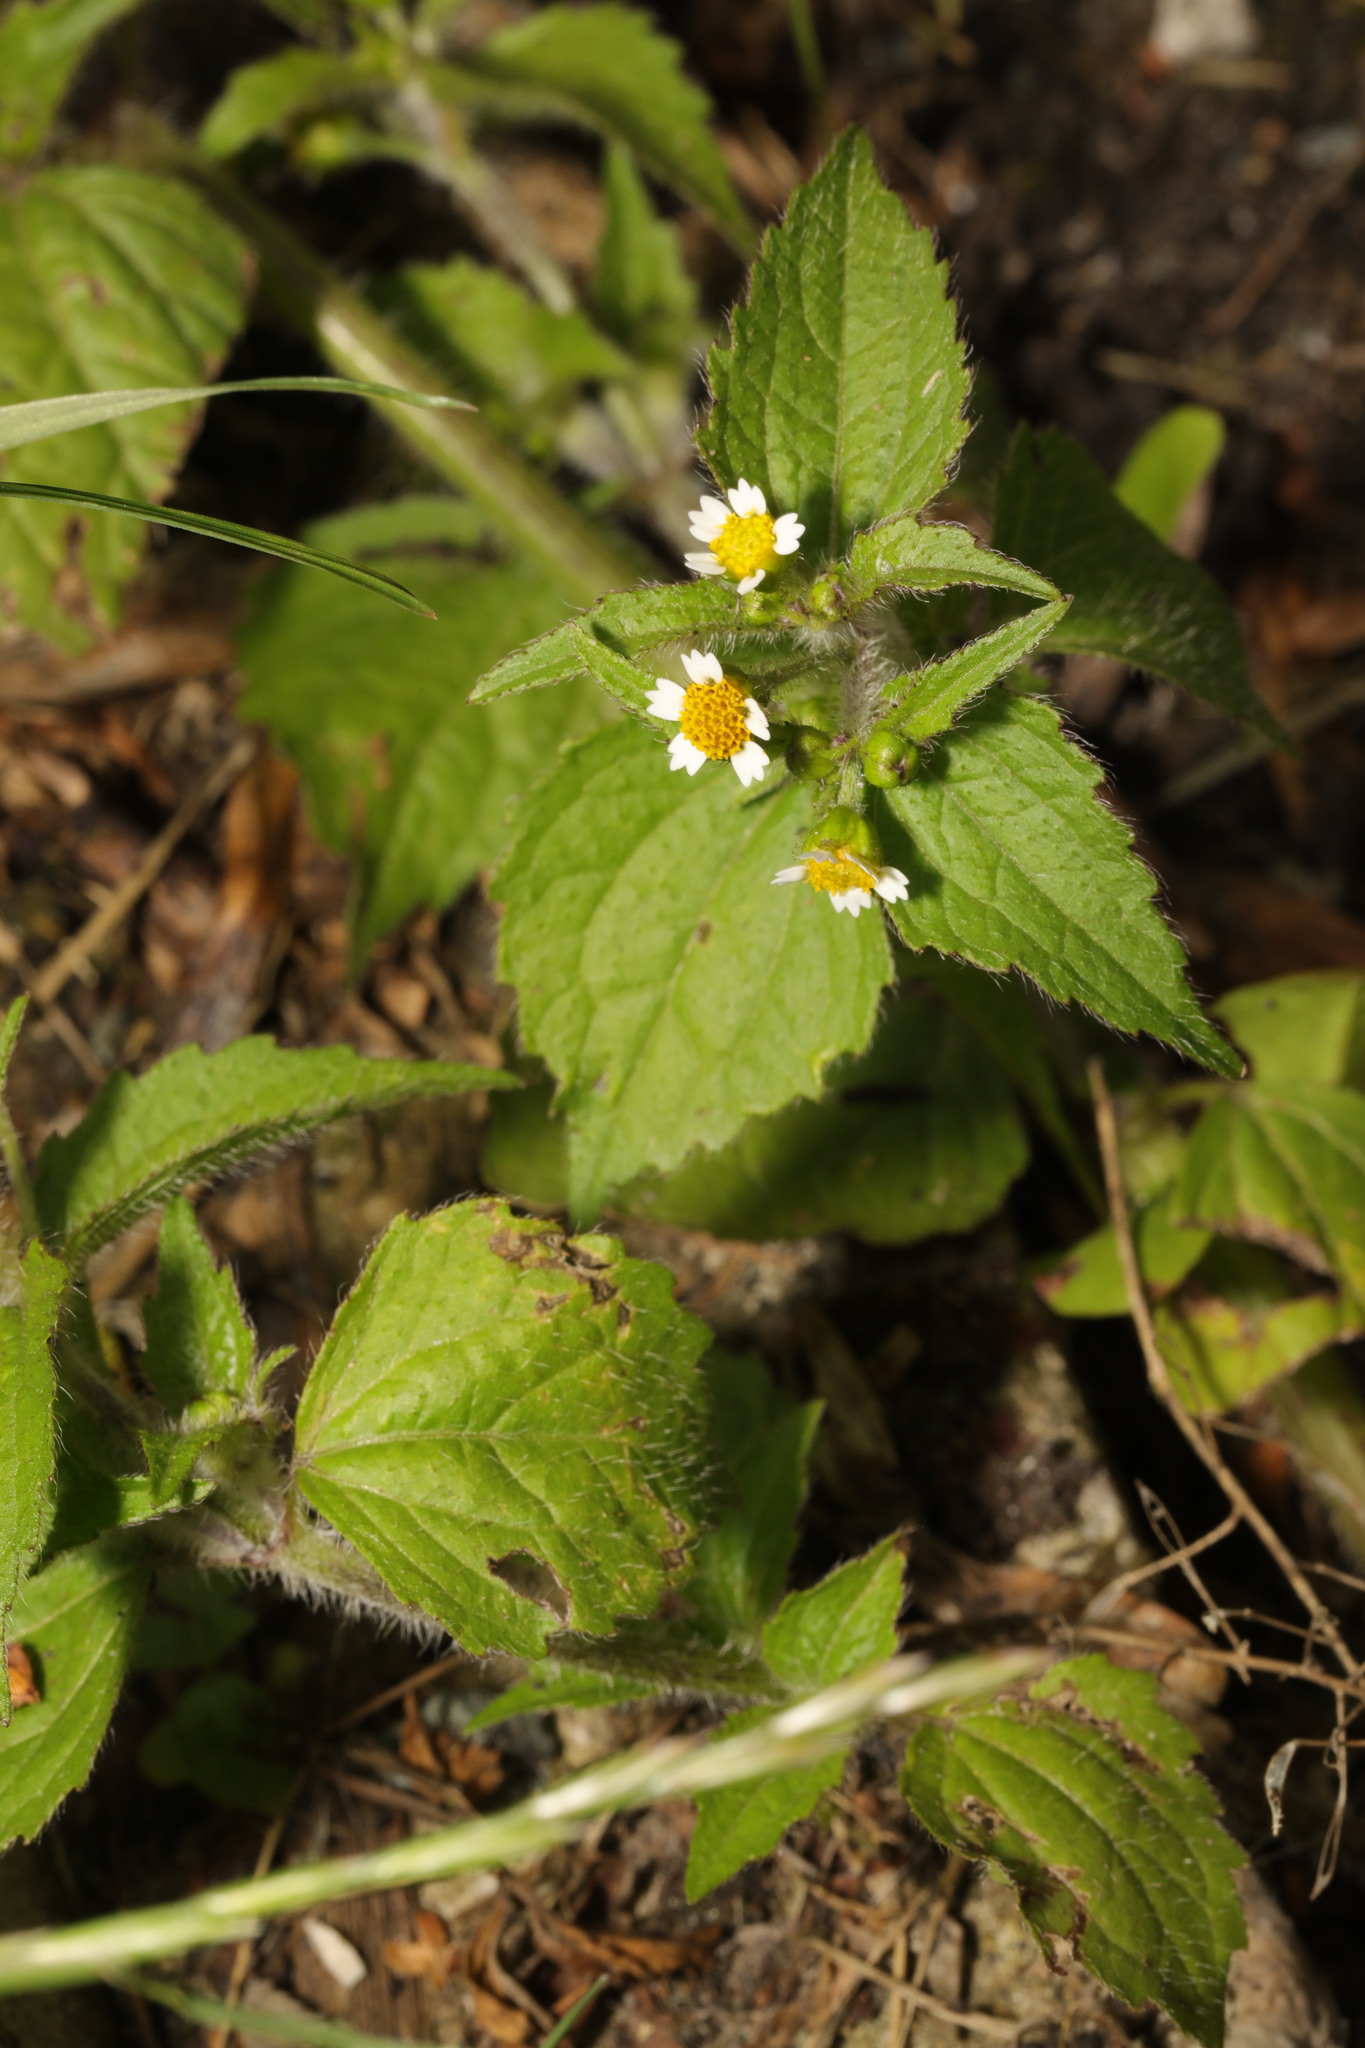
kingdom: Plantae
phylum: Tracheophyta
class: Magnoliopsida
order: Asterales
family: Asteraceae
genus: Galinsoga
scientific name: Galinsoga quadriradiata
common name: Shaggy soldier
